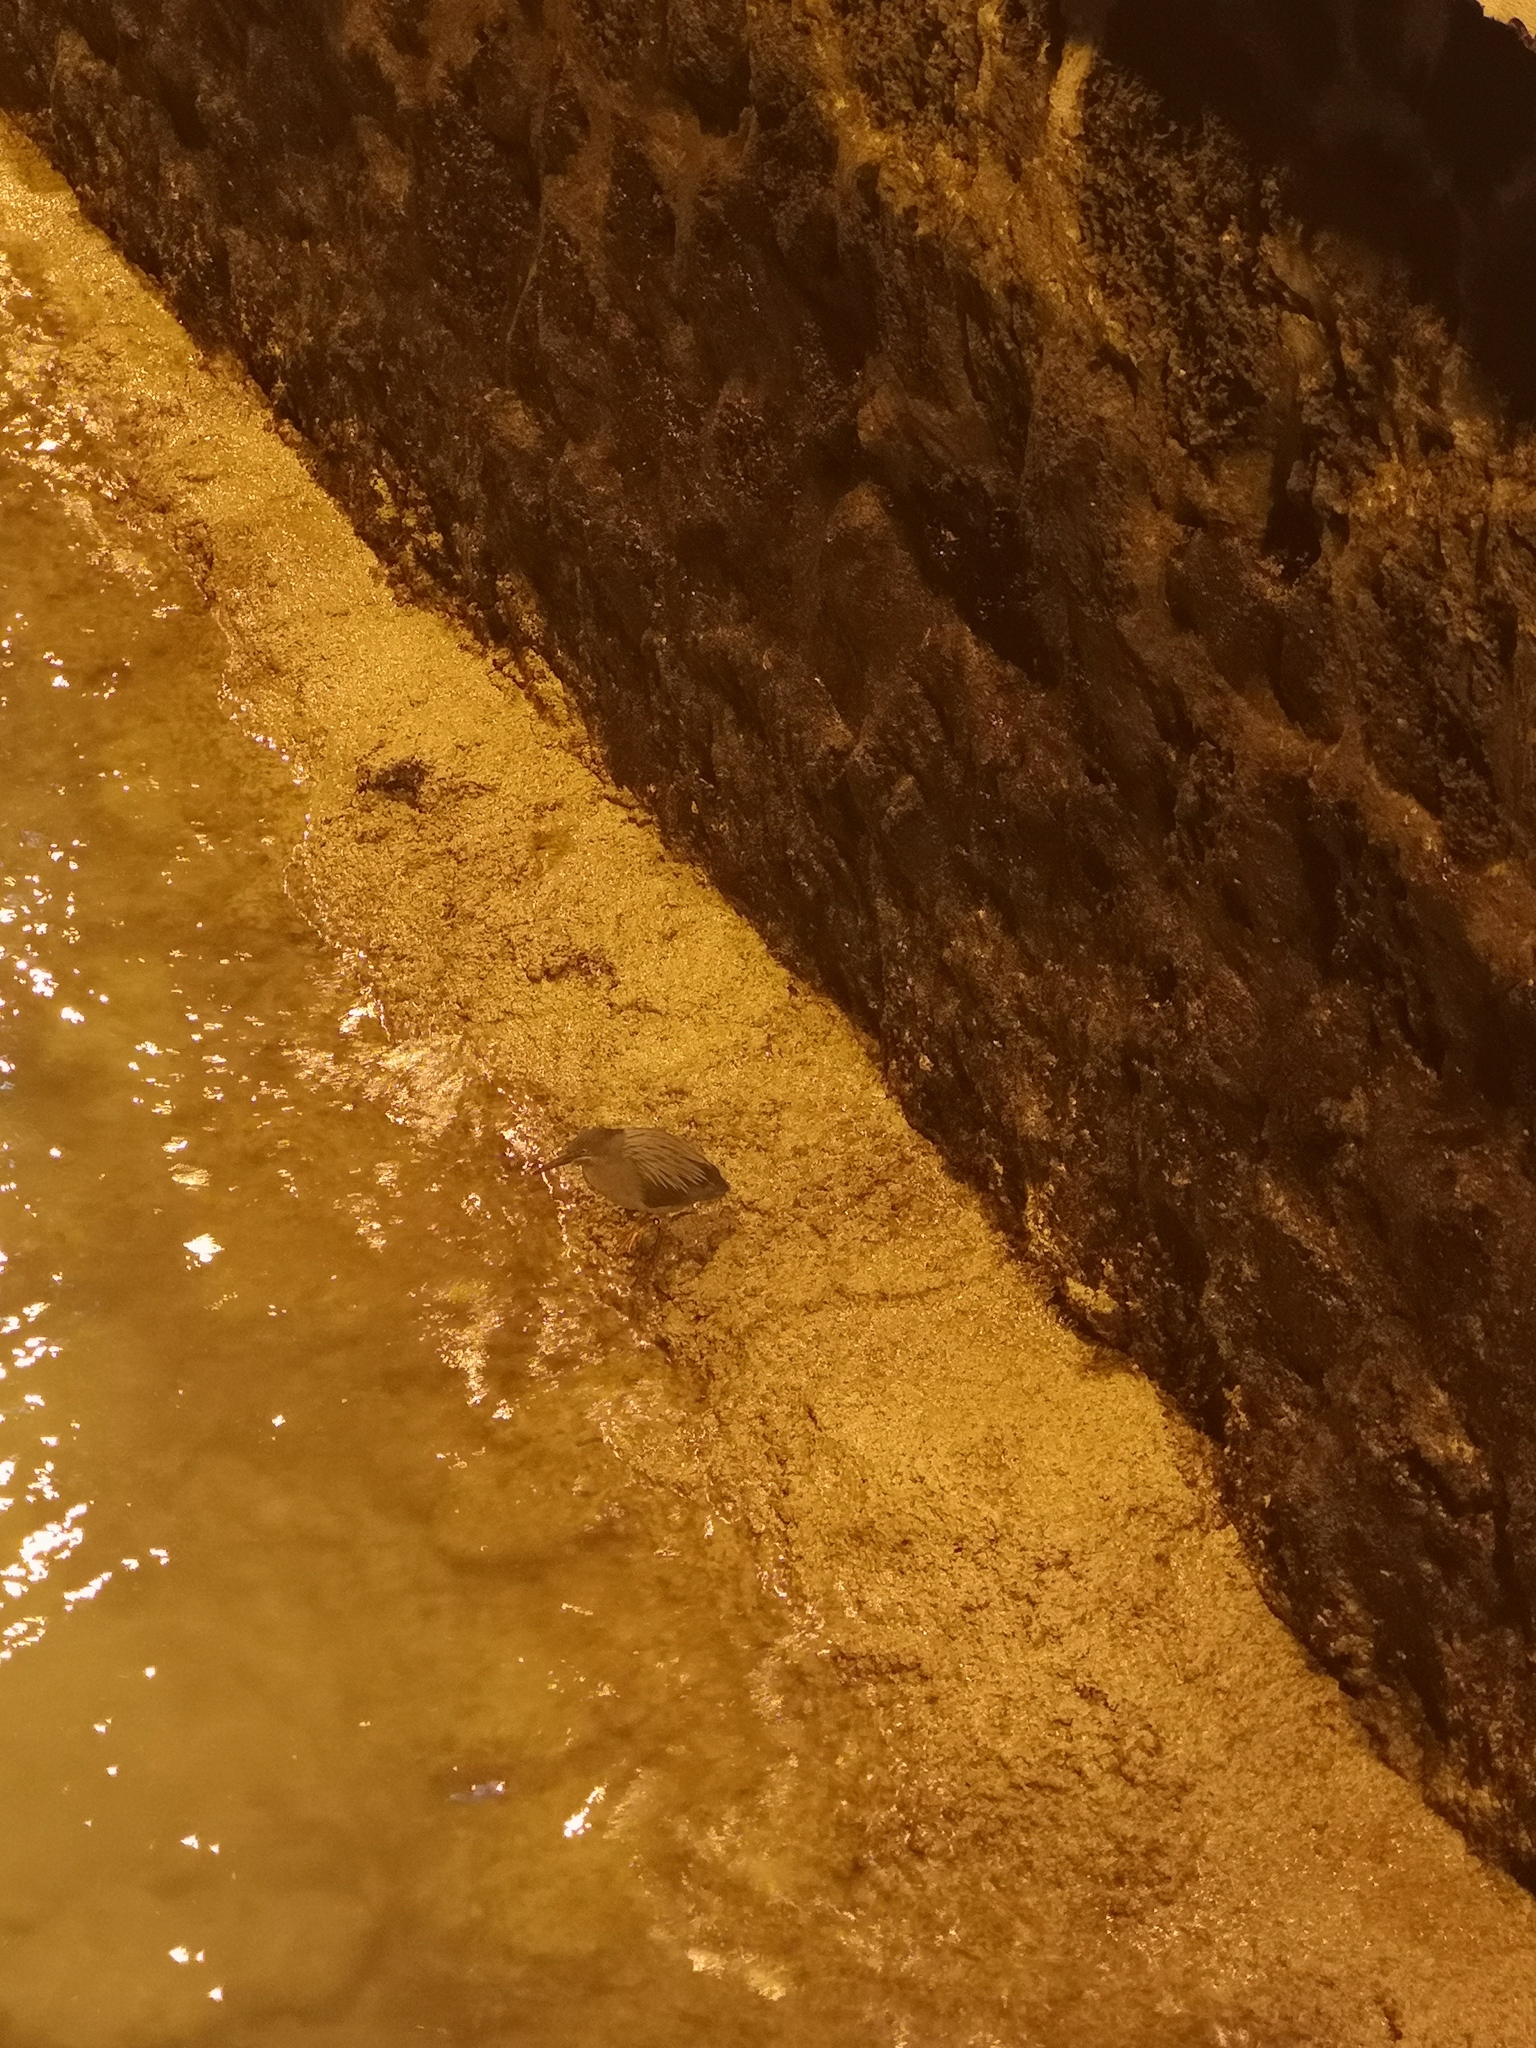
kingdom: Animalia
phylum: Chordata
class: Aves
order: Pelecaniformes
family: Ardeidae
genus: Butorides
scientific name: Butorides striata
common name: Striated heron
